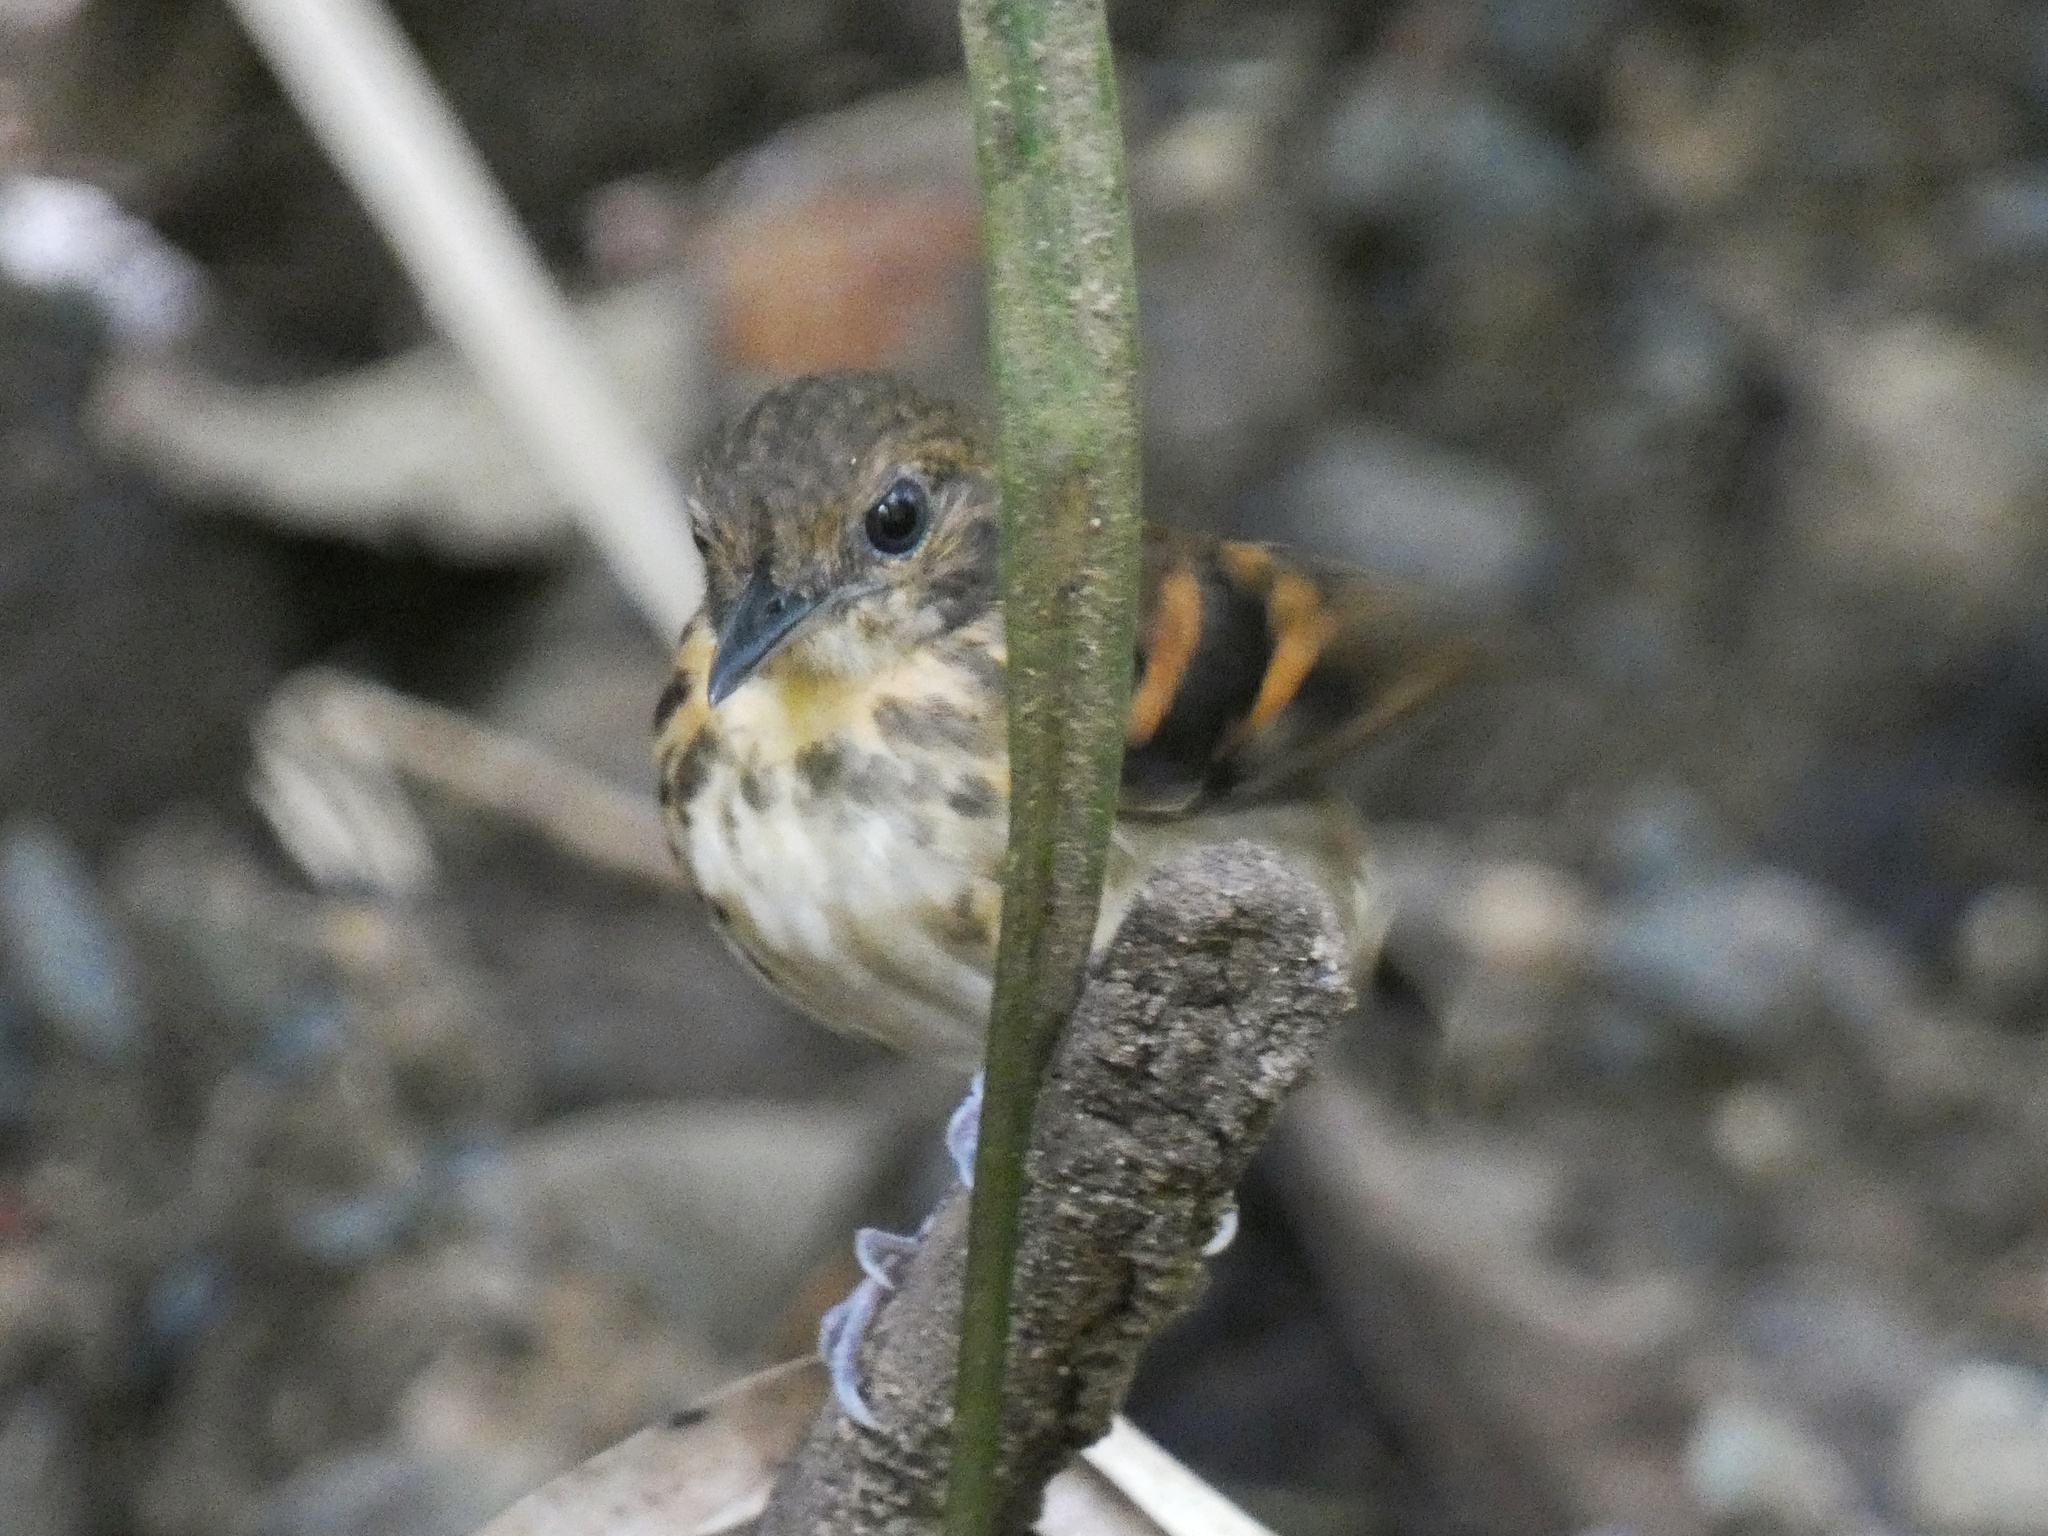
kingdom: Animalia
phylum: Chordata
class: Aves
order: Passeriformes
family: Thamnophilidae
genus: Hylophylax
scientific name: Hylophylax naevioides
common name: Spotted antbird
